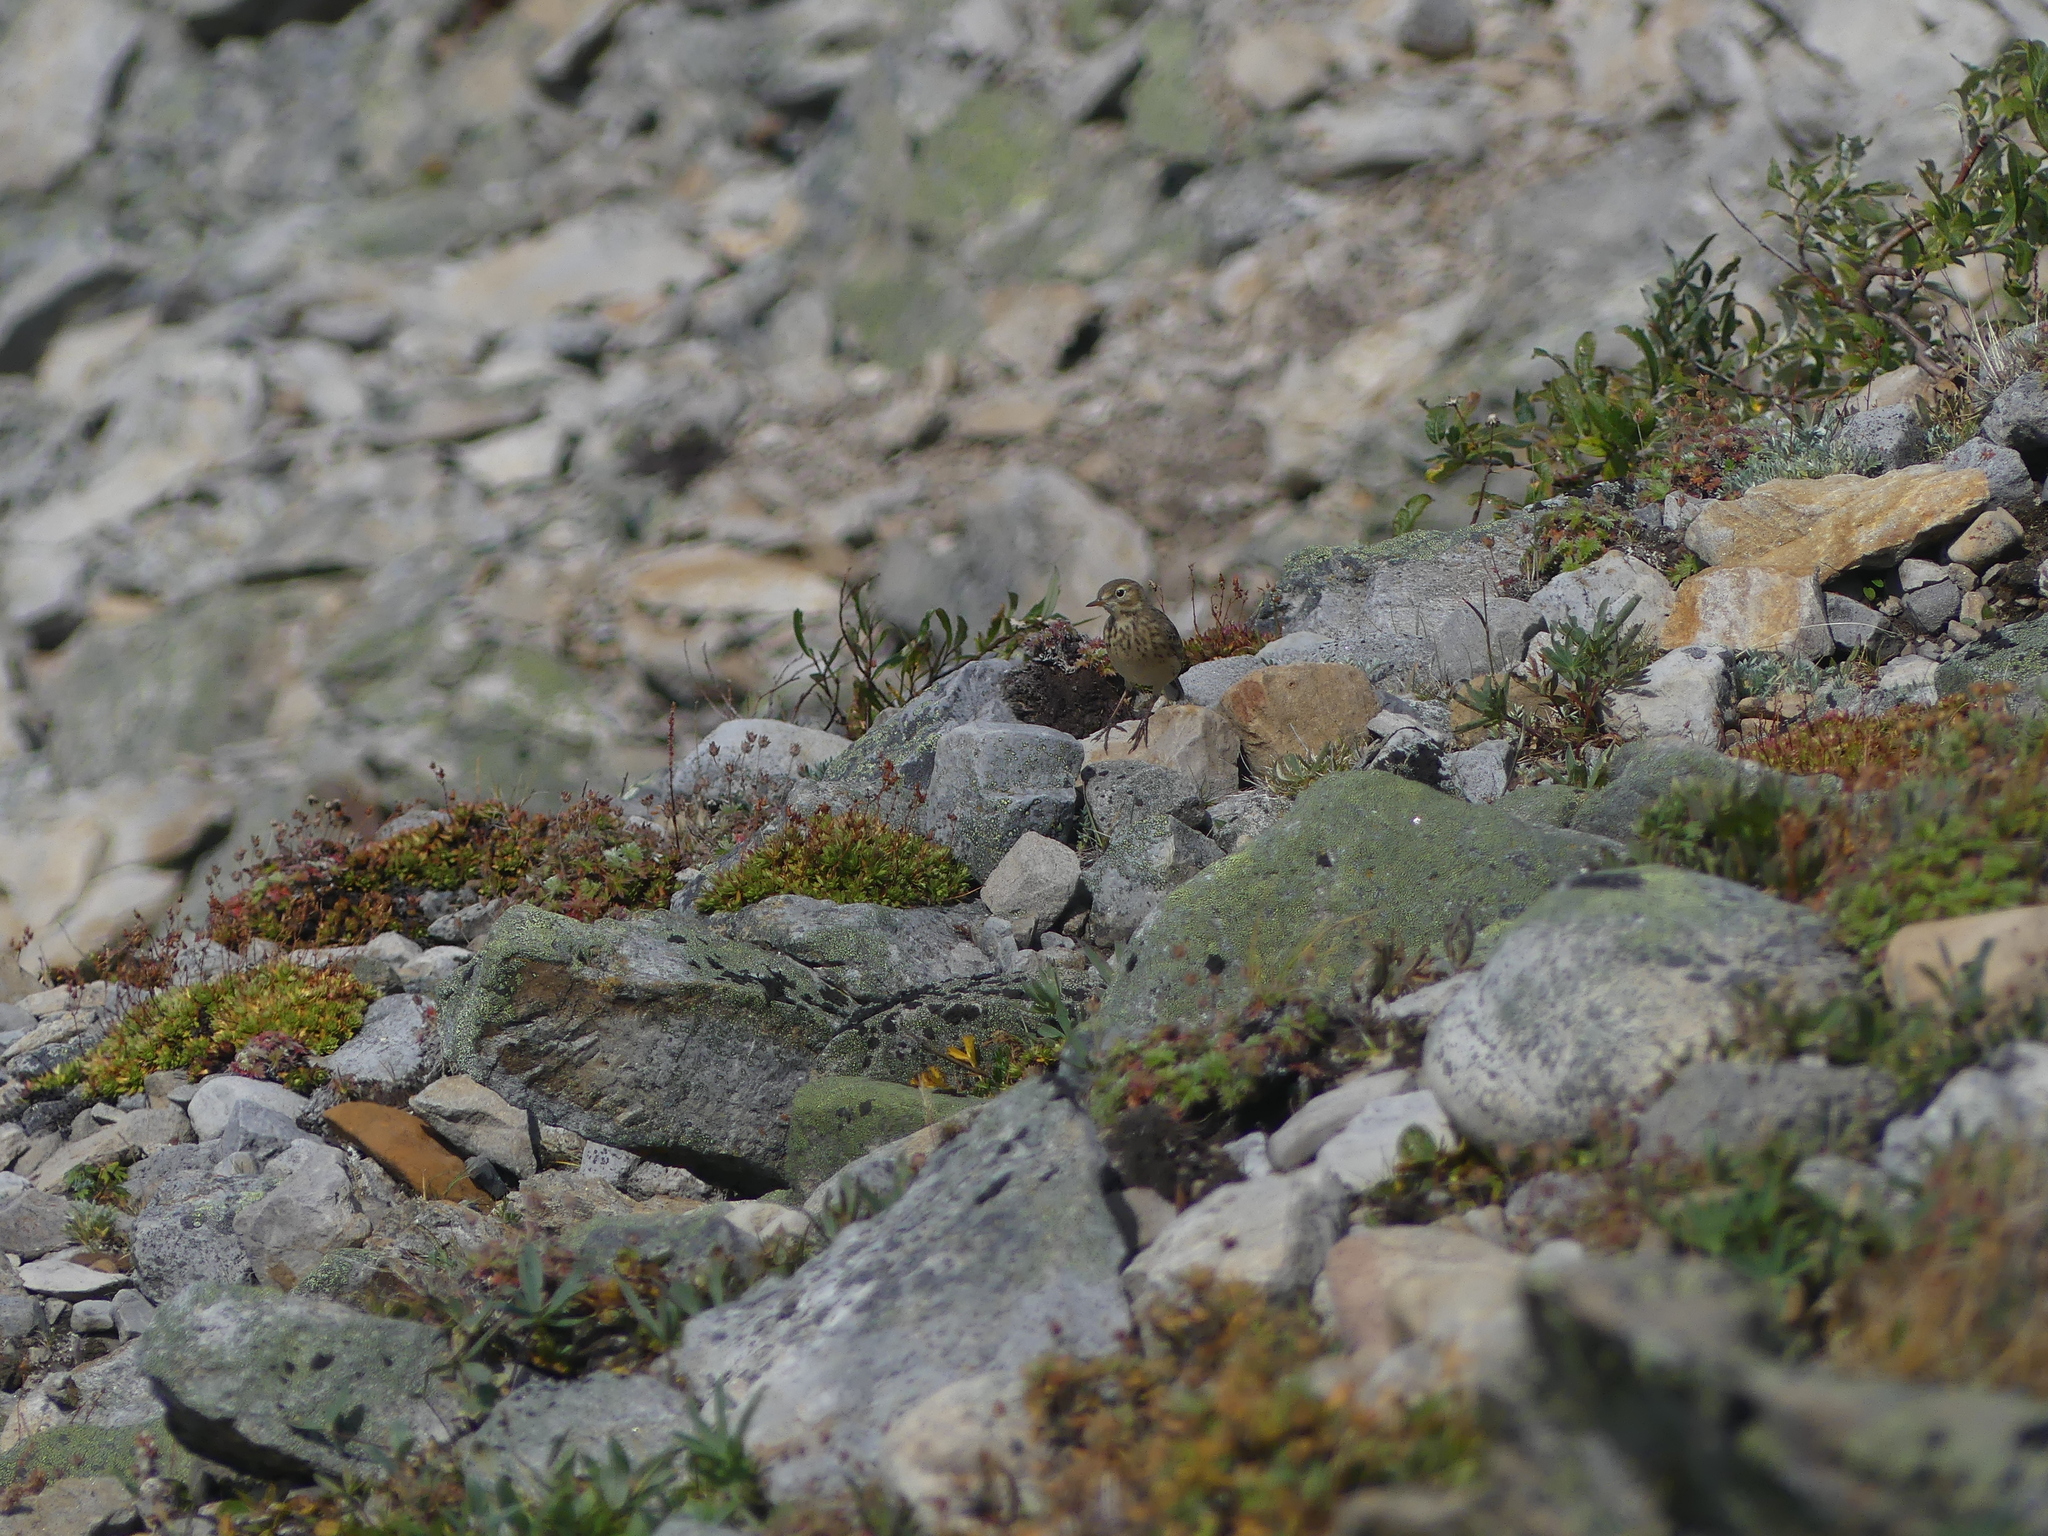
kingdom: Animalia
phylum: Chordata
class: Aves
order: Passeriformes
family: Motacillidae
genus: Anthus
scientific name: Anthus rubescens
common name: Buff-bellied pipit
